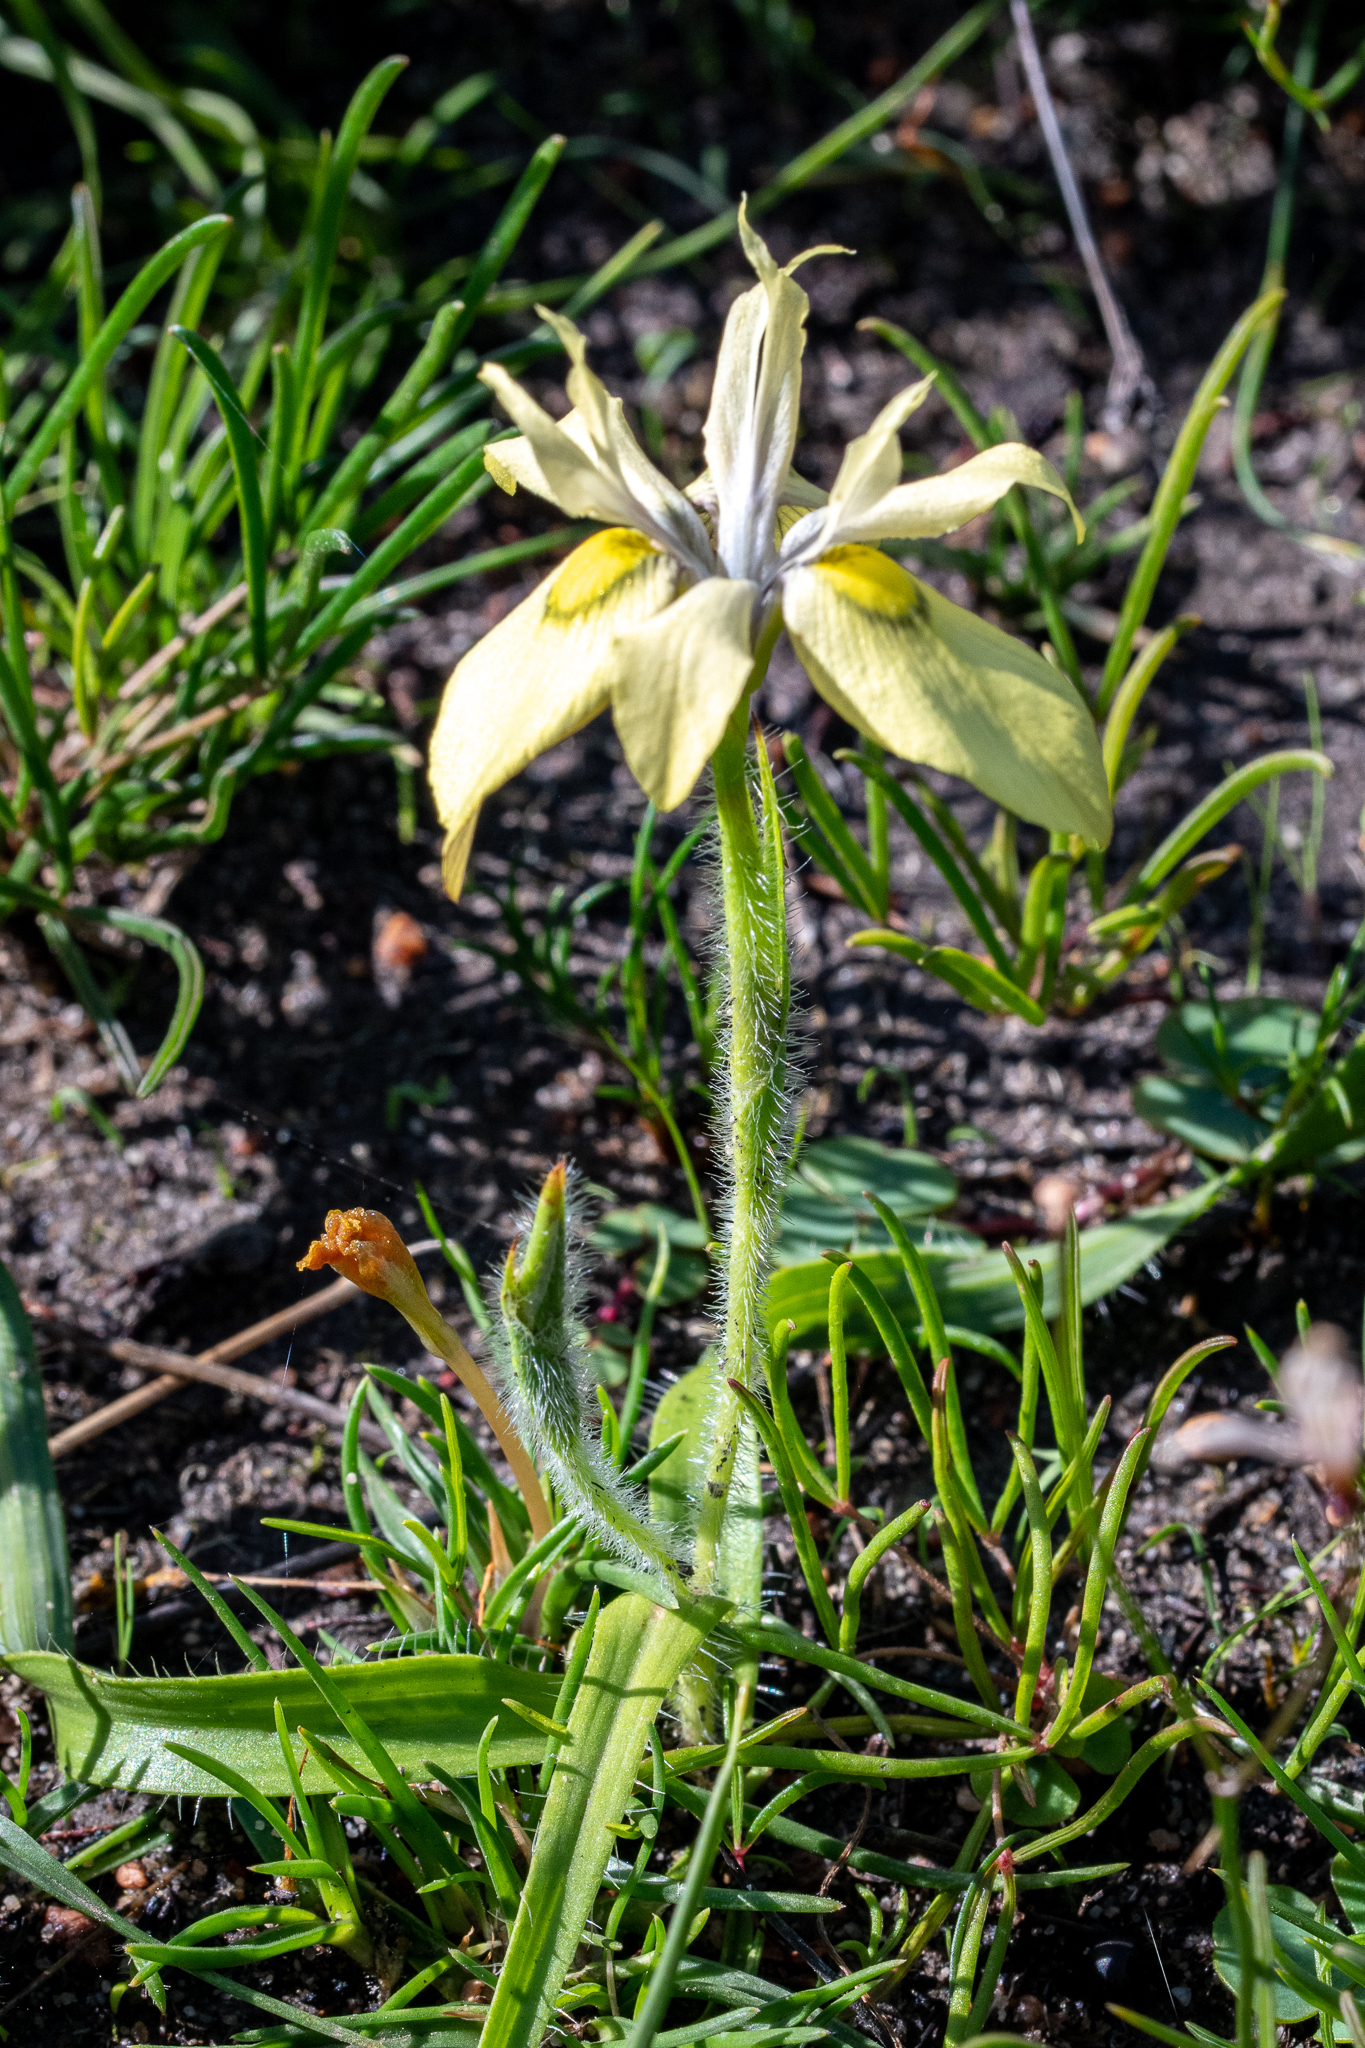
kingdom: Plantae
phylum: Tracheophyta
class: Liliopsida
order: Asparagales
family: Iridaceae
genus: Moraea
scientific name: Moraea papilionacea
